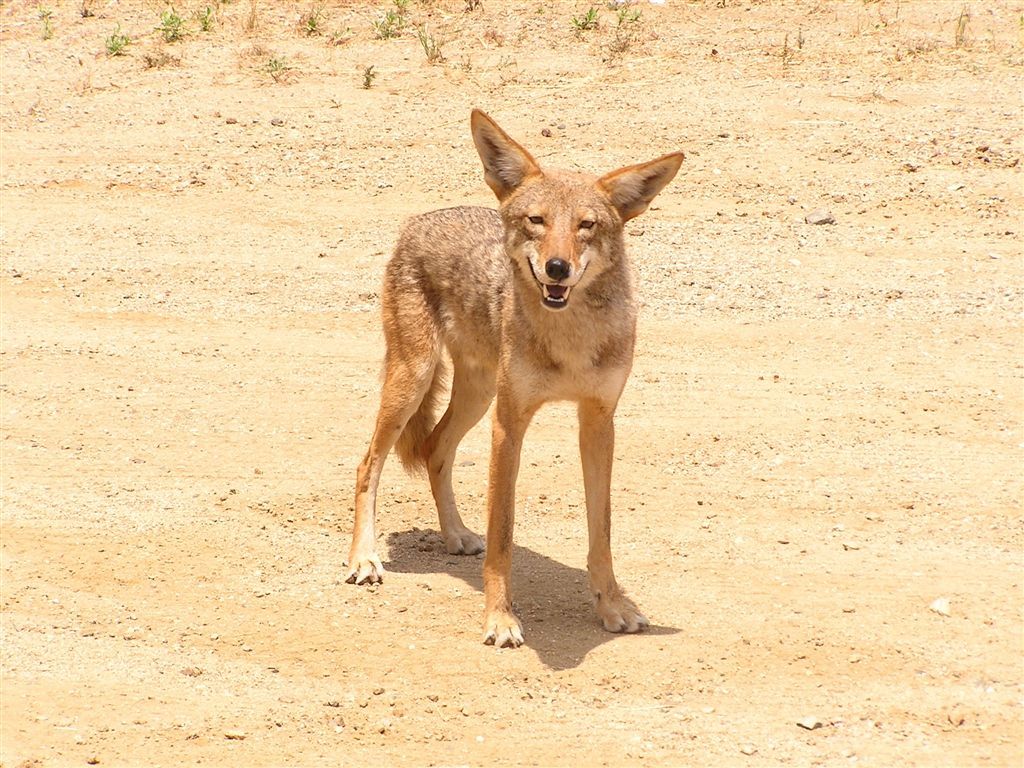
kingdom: Animalia
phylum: Chordata
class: Mammalia
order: Carnivora
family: Canidae
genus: Canis
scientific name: Canis latrans
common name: Coyote
